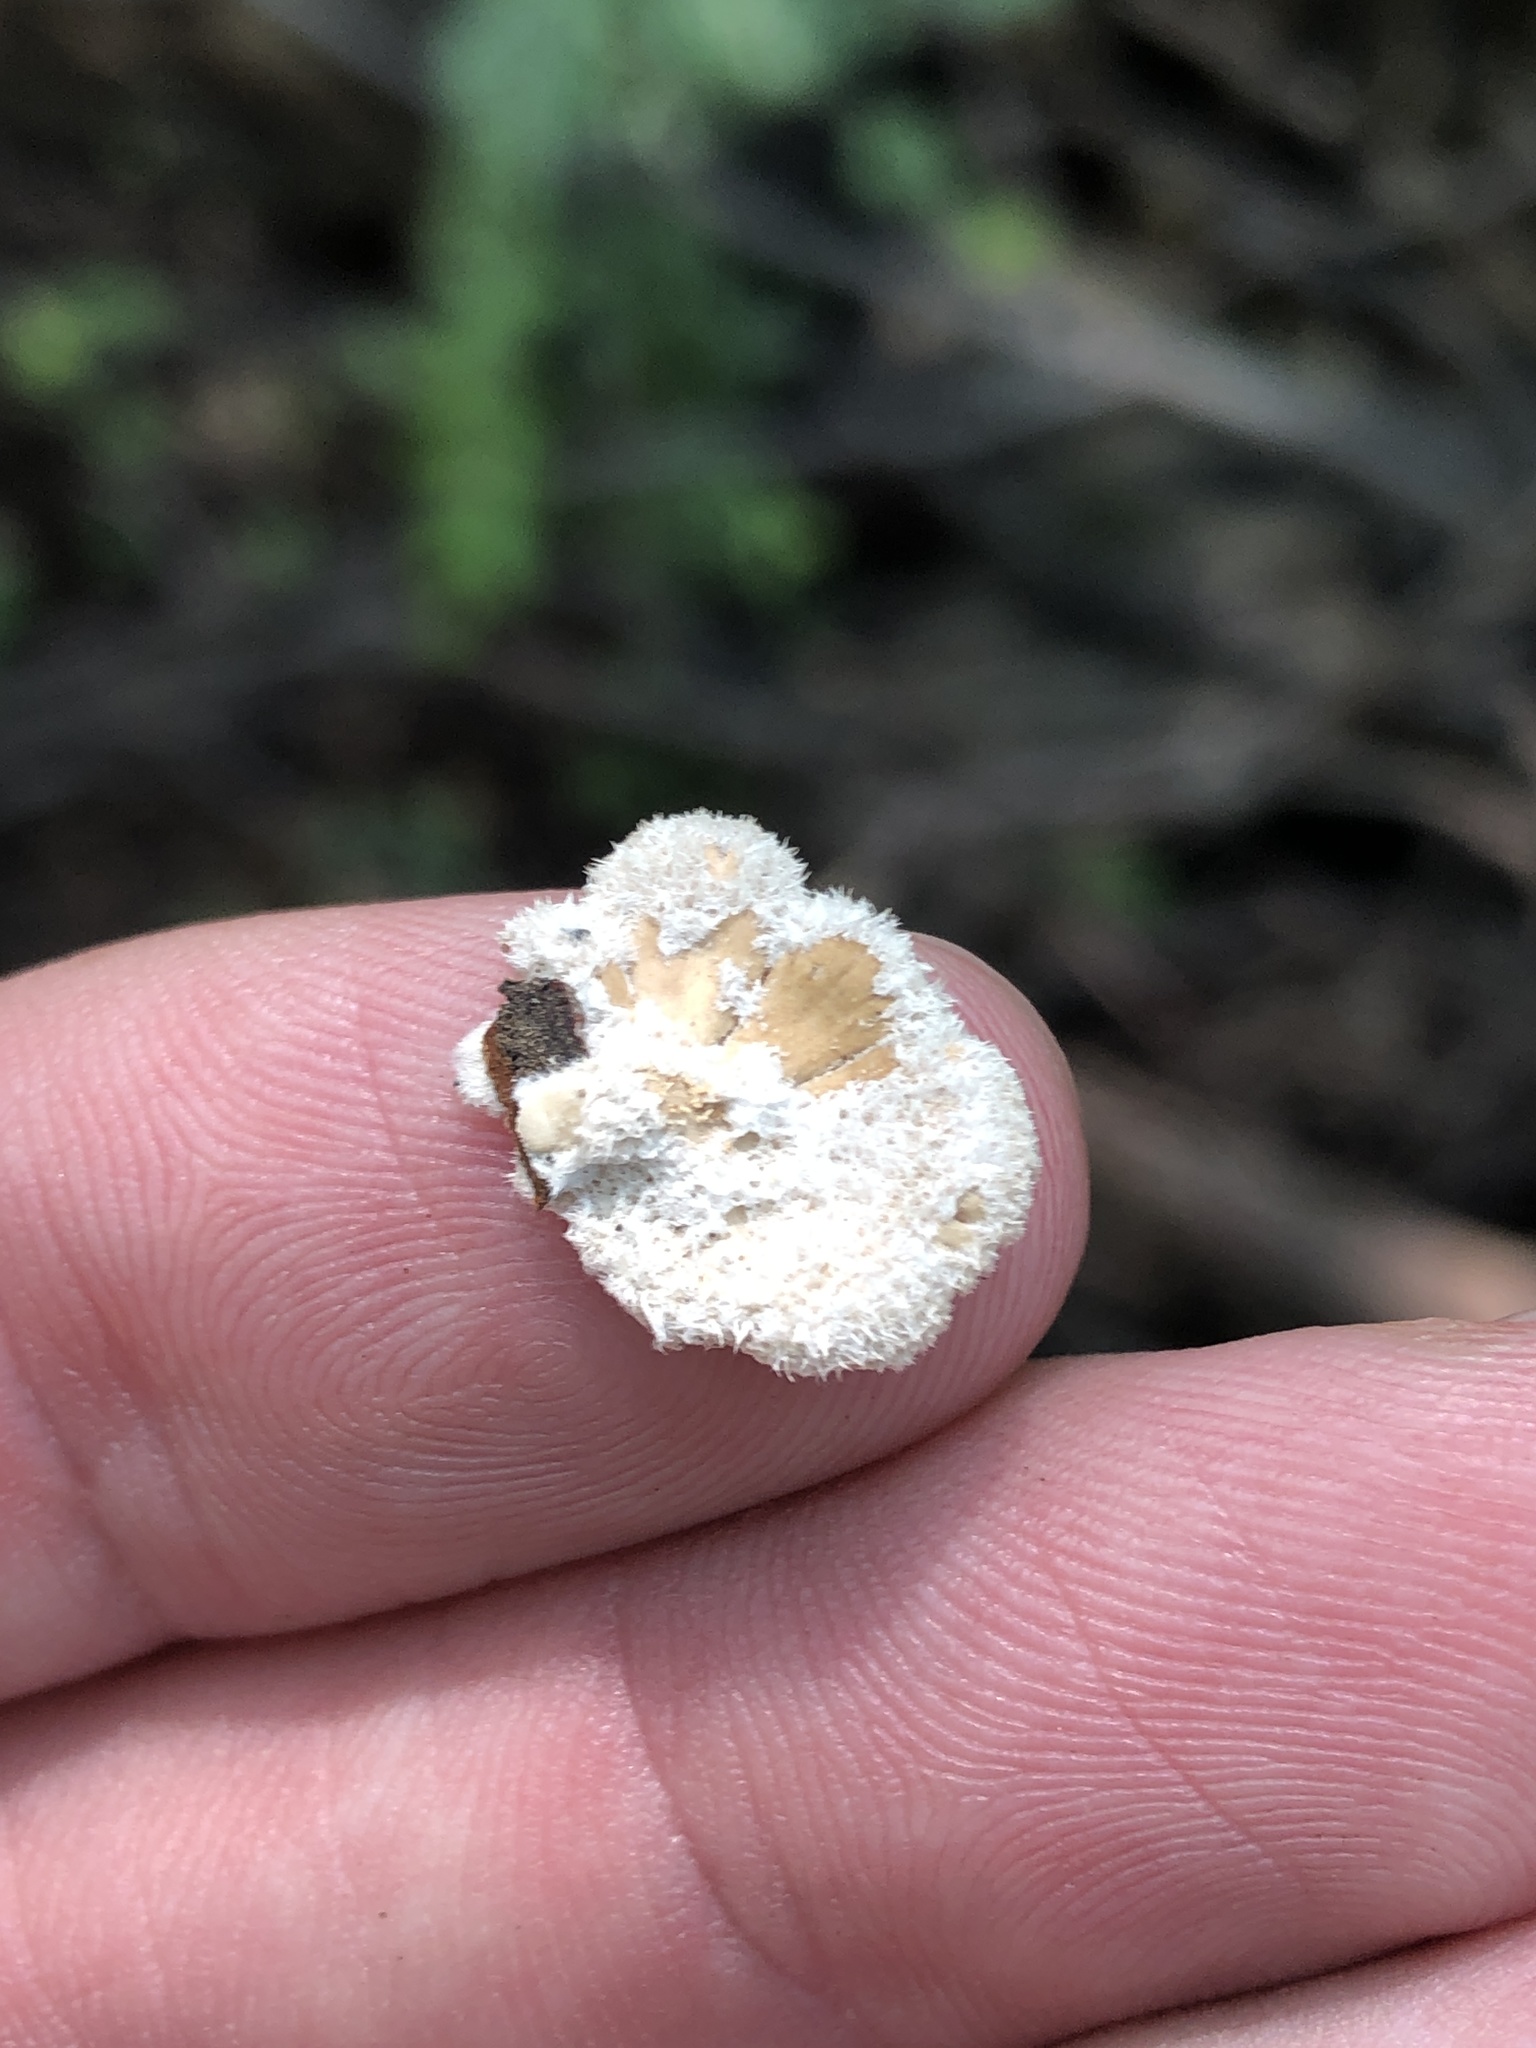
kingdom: Fungi
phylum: Basidiomycota
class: Agaricomycetes
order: Agaricales
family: Schizophyllaceae
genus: Schizophyllum
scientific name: Schizophyllum commune
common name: Common porecrust
